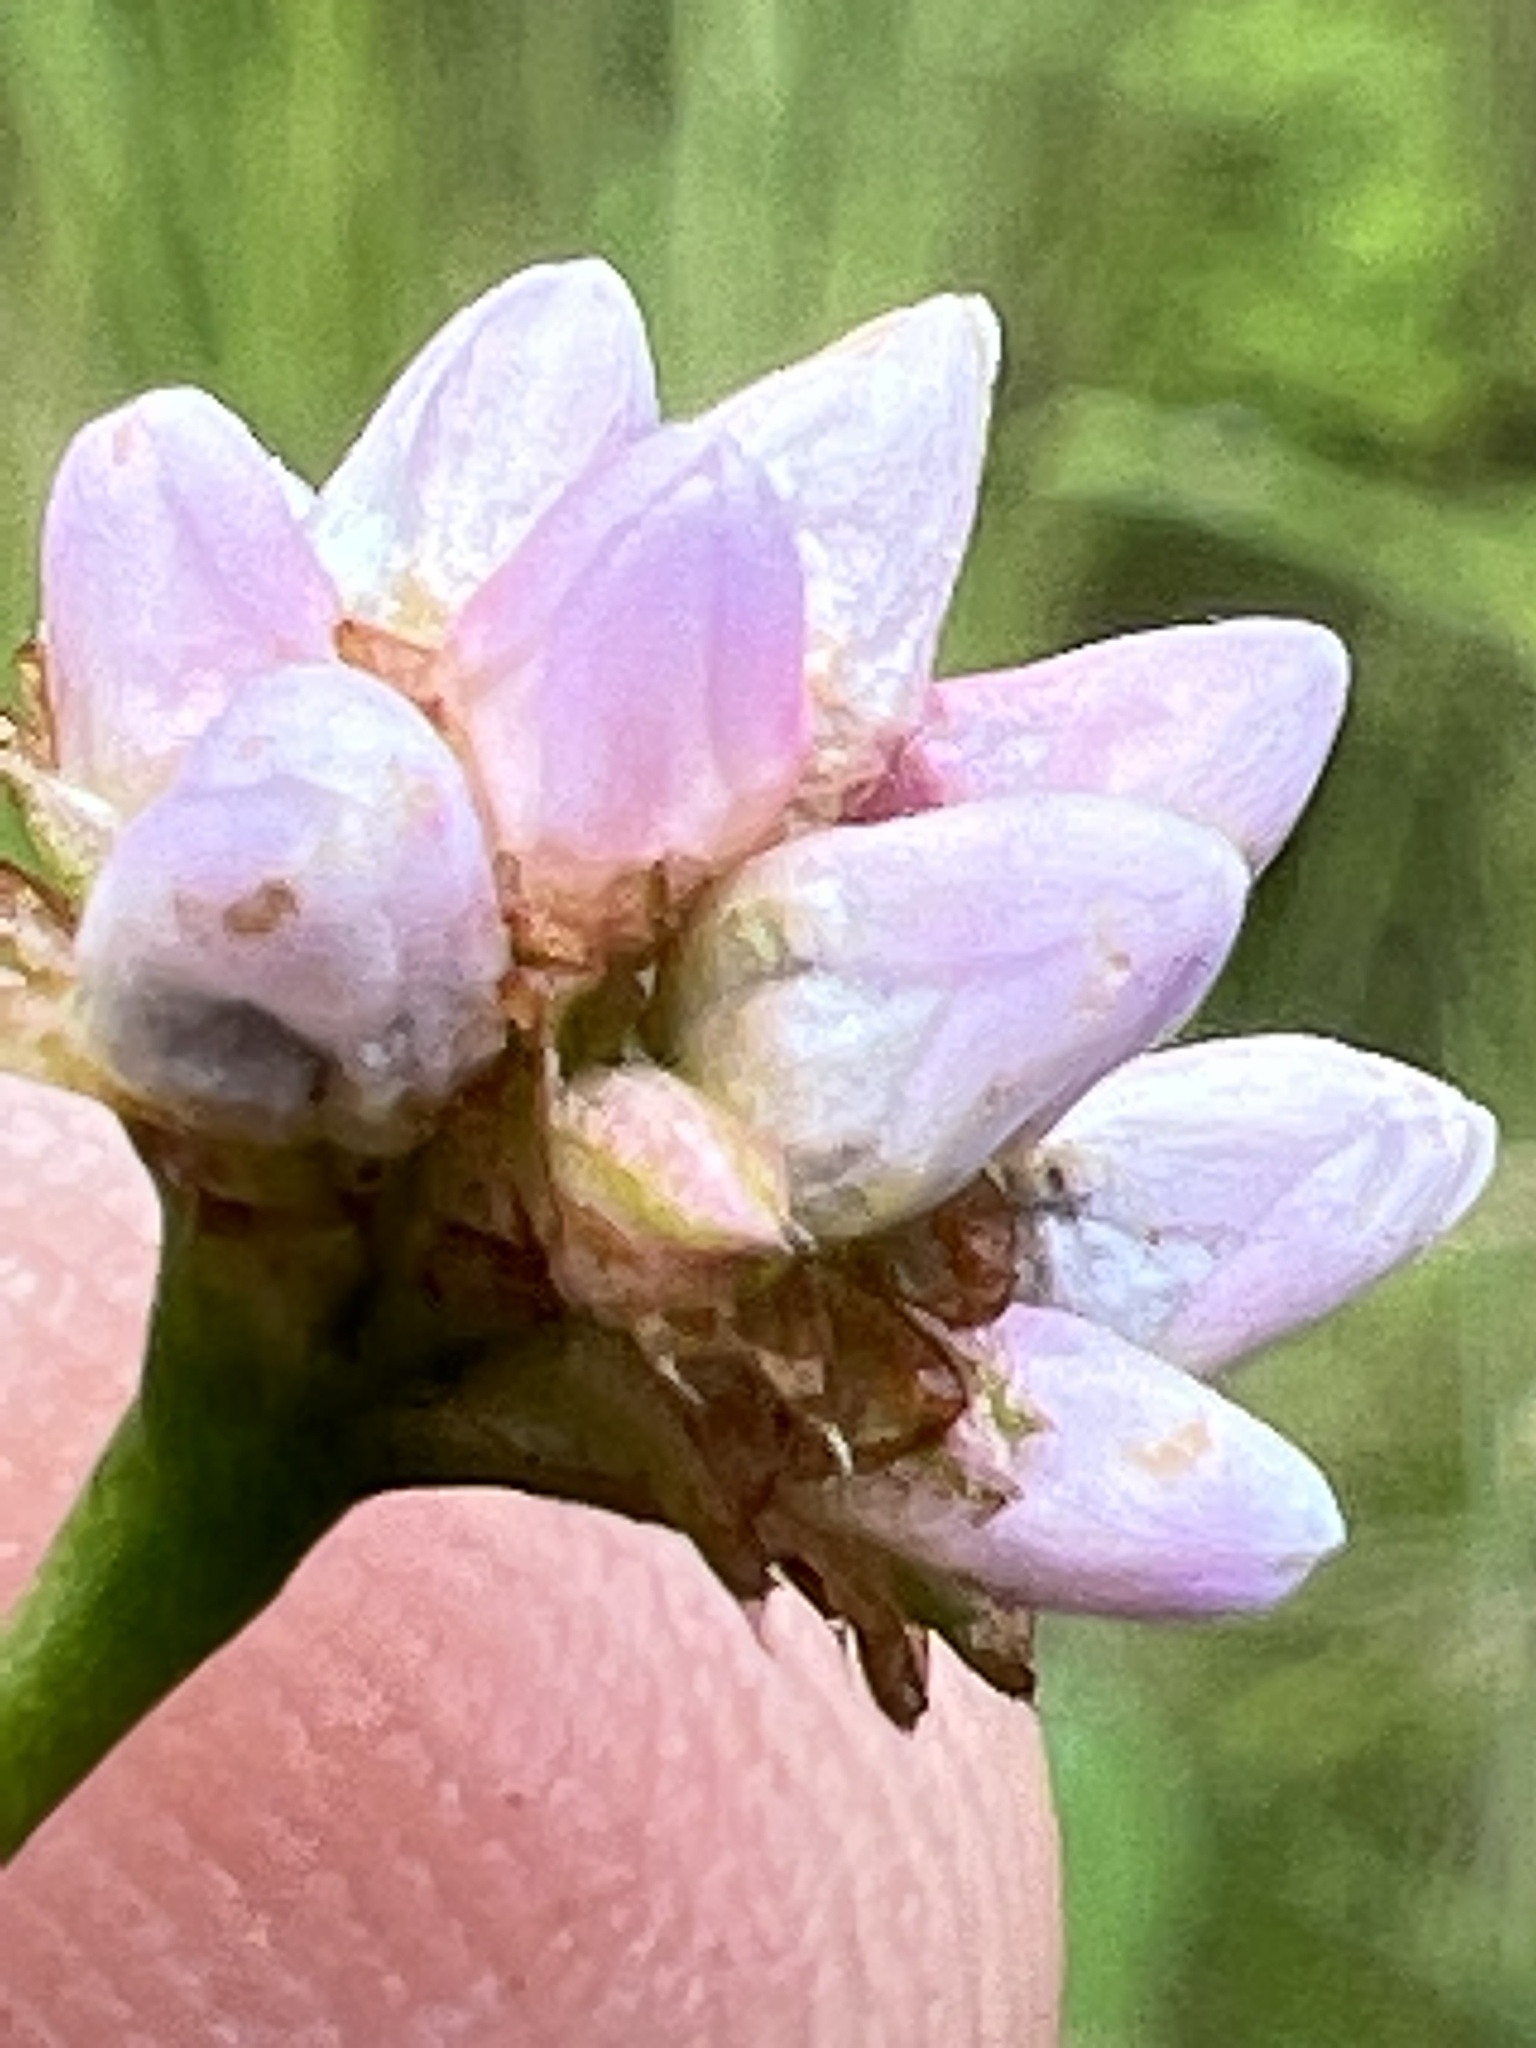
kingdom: Plantae
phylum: Tracheophyta
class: Magnoliopsida
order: Caryophyllales
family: Polygonaceae
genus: Persicaria
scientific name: Persicaria sagittata
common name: American tearthumb
